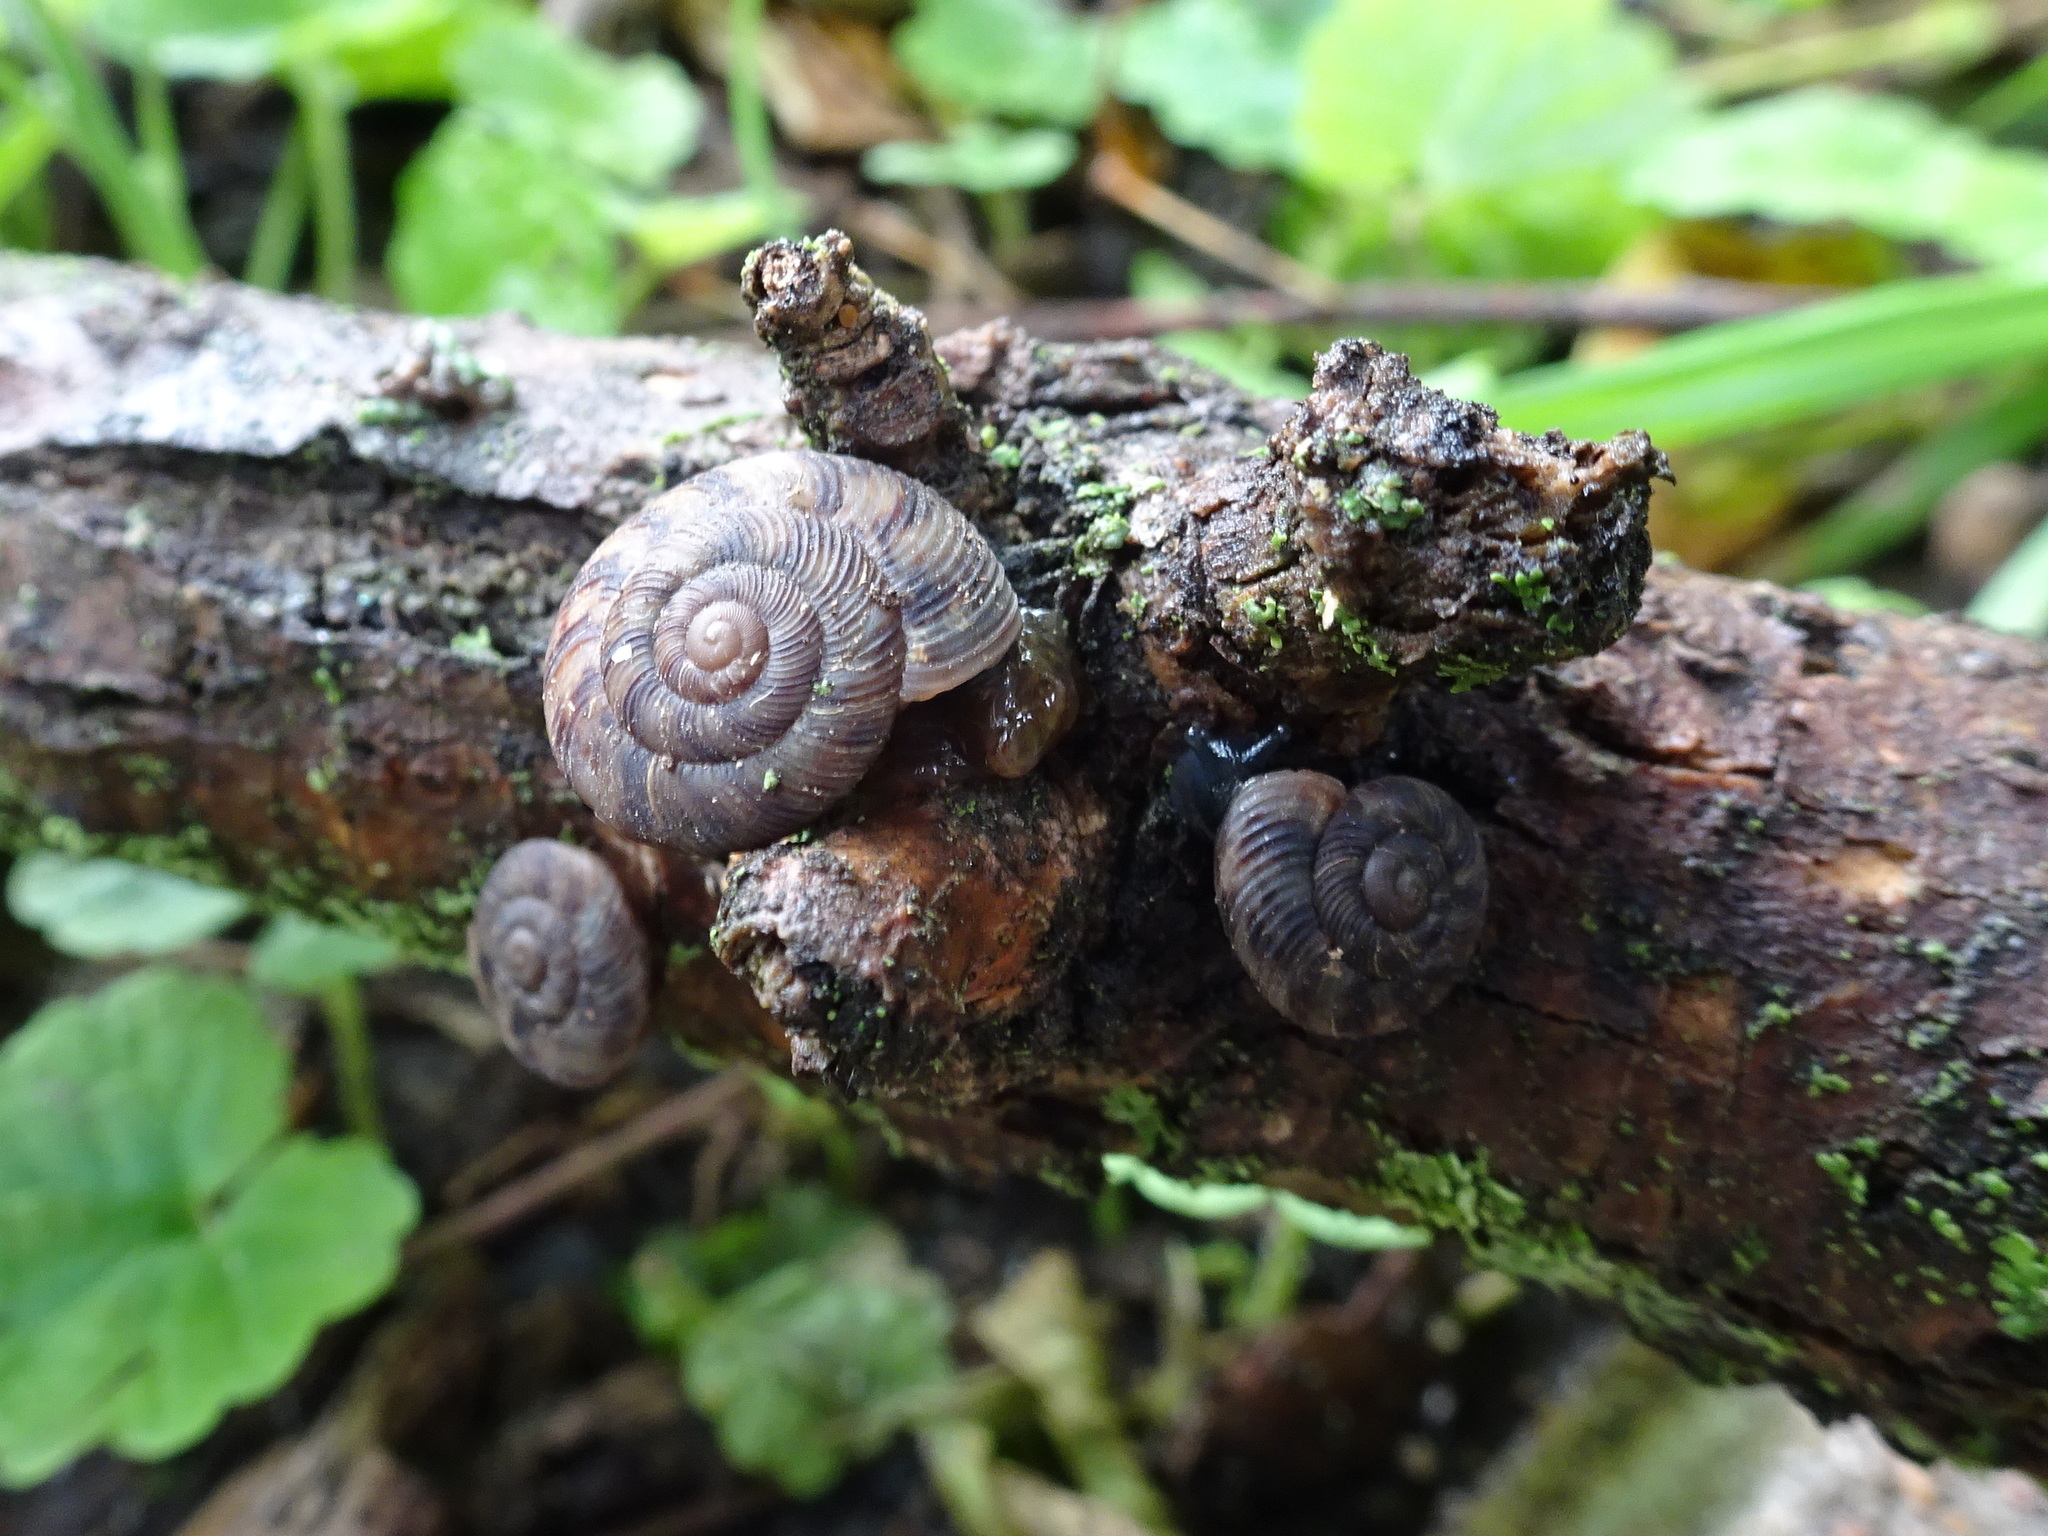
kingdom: Animalia
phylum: Mollusca
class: Gastropoda
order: Stylommatophora
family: Discidae
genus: Anguispira
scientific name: Anguispira alternata
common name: Flamed tigersnail
